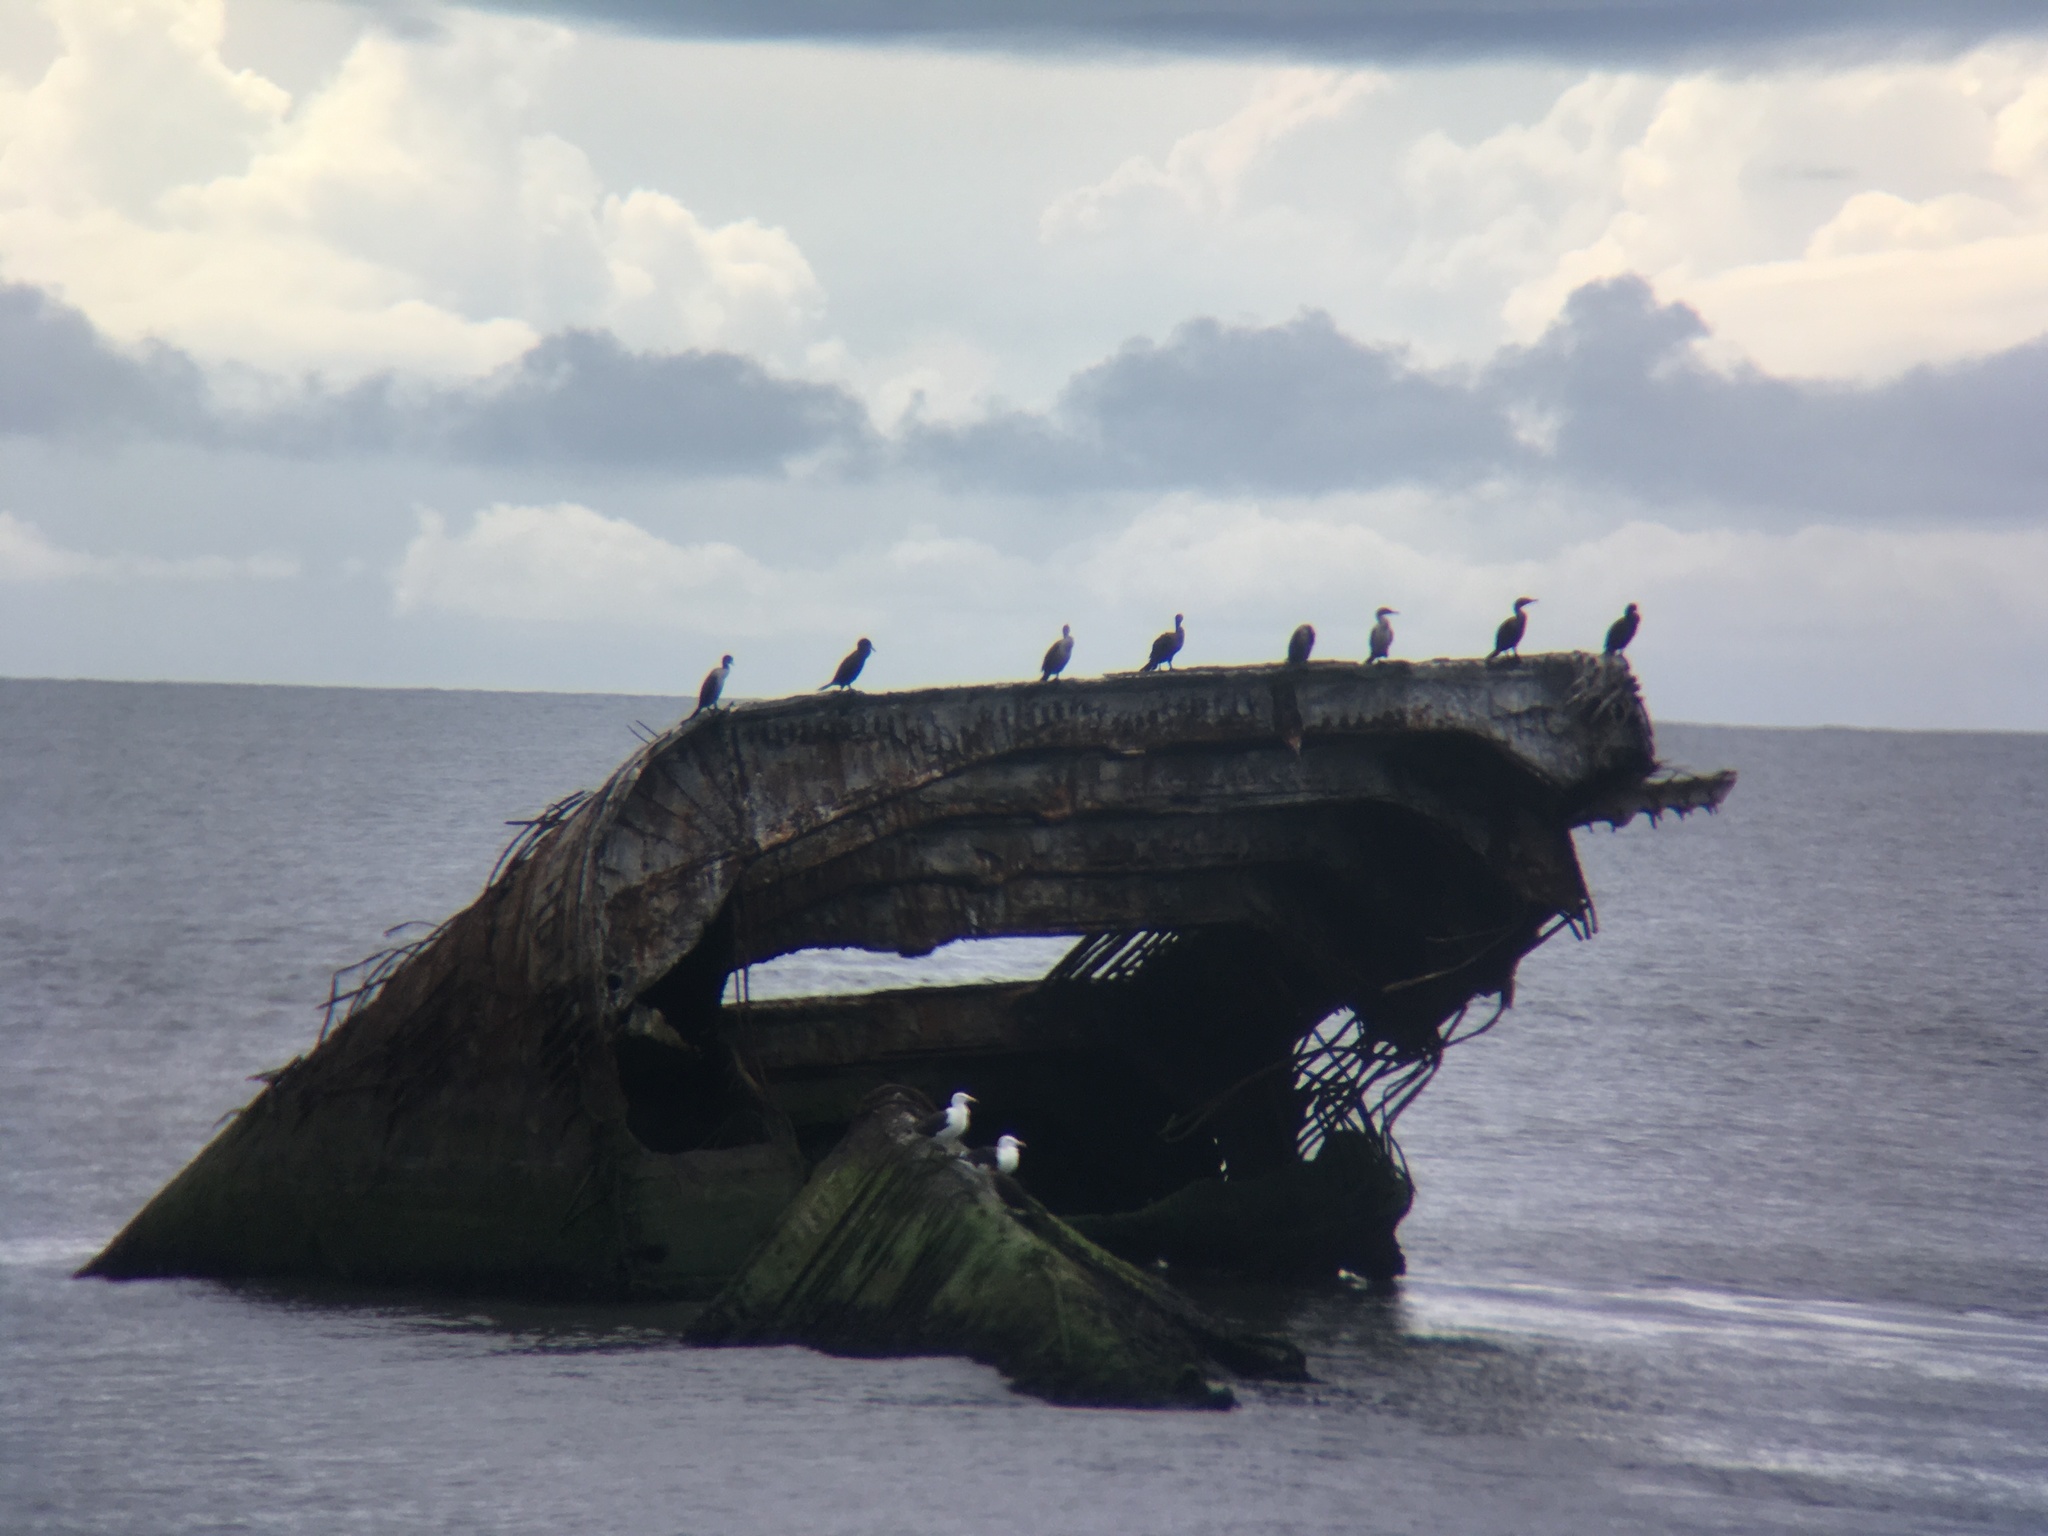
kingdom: Animalia
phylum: Chordata
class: Aves
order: Suliformes
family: Phalacrocoracidae
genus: Phalacrocorax
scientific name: Phalacrocorax auritus
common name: Double-crested cormorant
